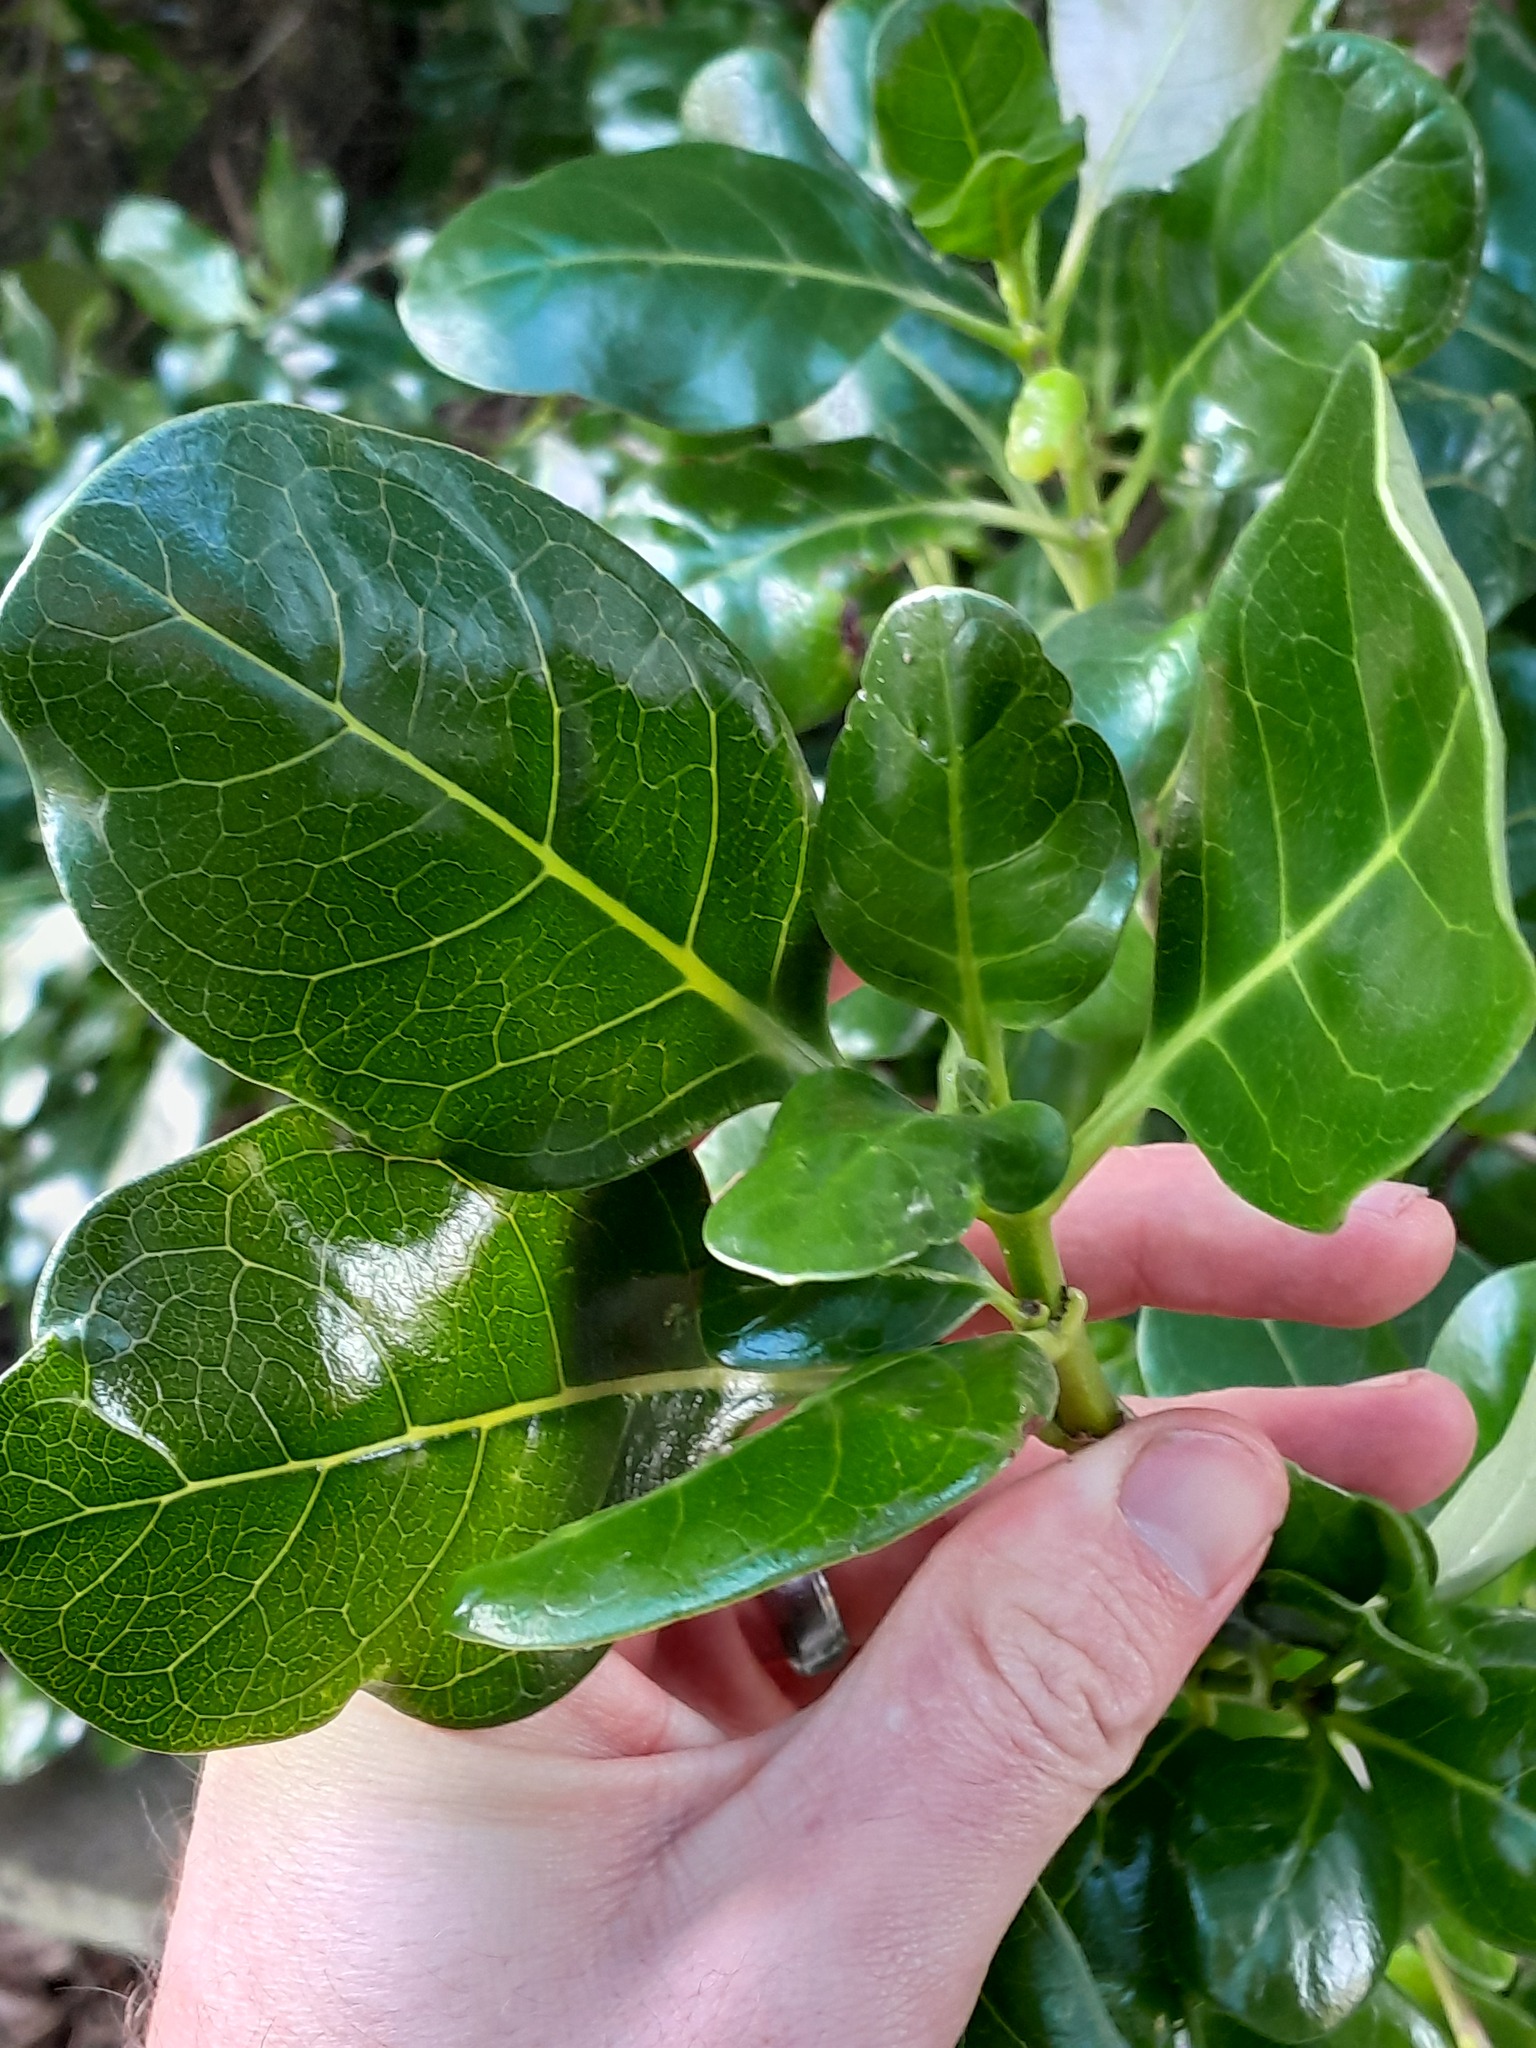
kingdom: Plantae
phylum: Tracheophyta
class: Magnoliopsida
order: Gentianales
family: Rubiaceae
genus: Coprosma
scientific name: Coprosma repens
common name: Tree bedstraw
